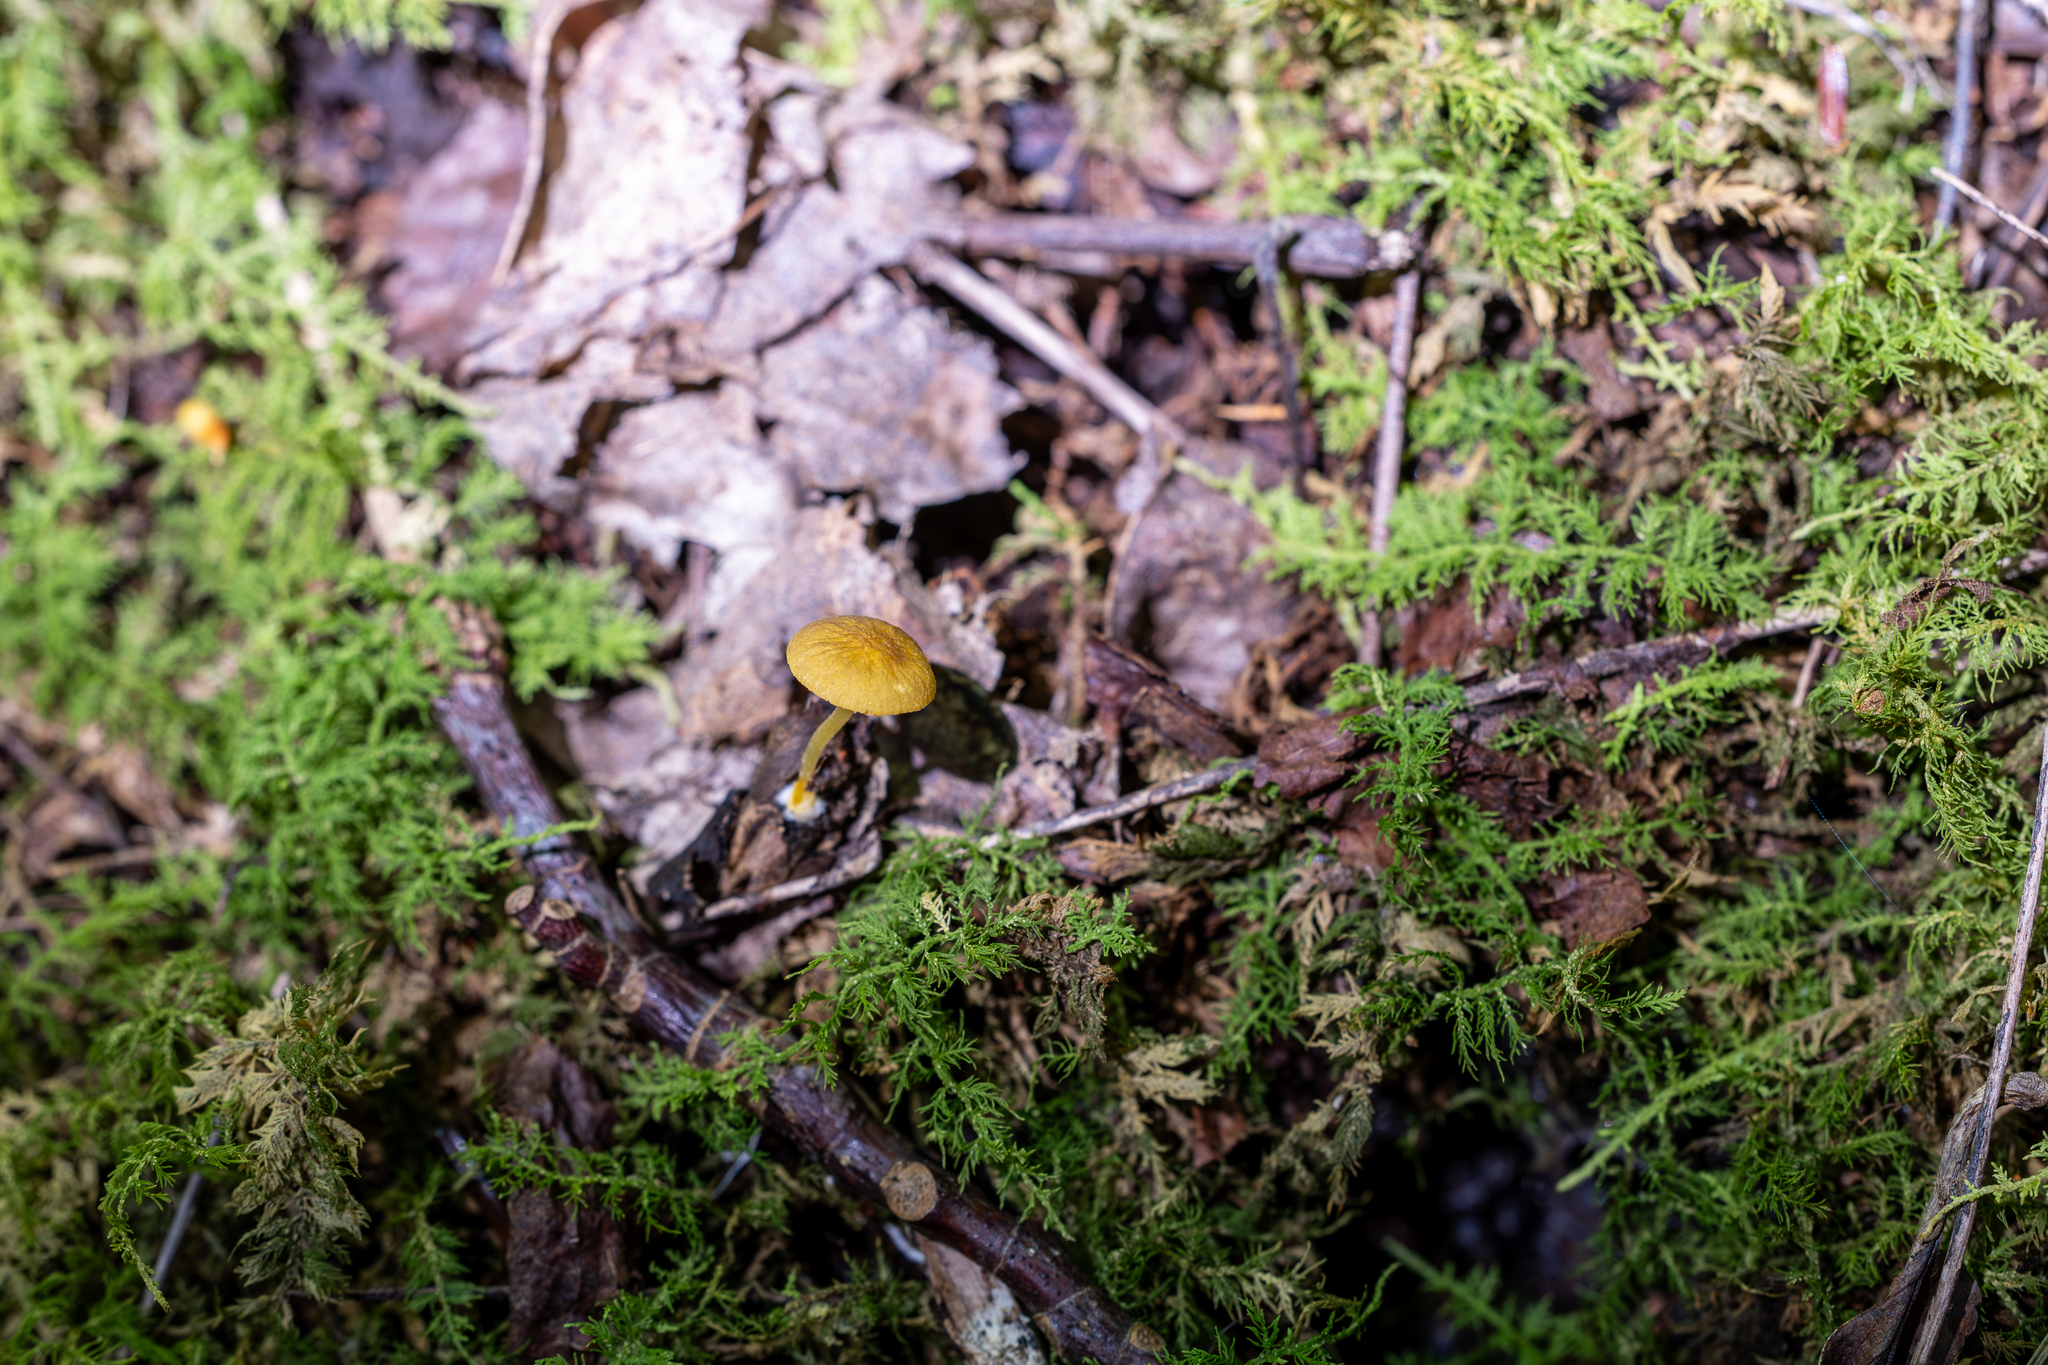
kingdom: Fungi
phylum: Basidiomycota
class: Agaricomycetes
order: Agaricales
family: Physalacriaceae
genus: Cyptotrama
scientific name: Cyptotrama chrysopepla
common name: Golden coincap
